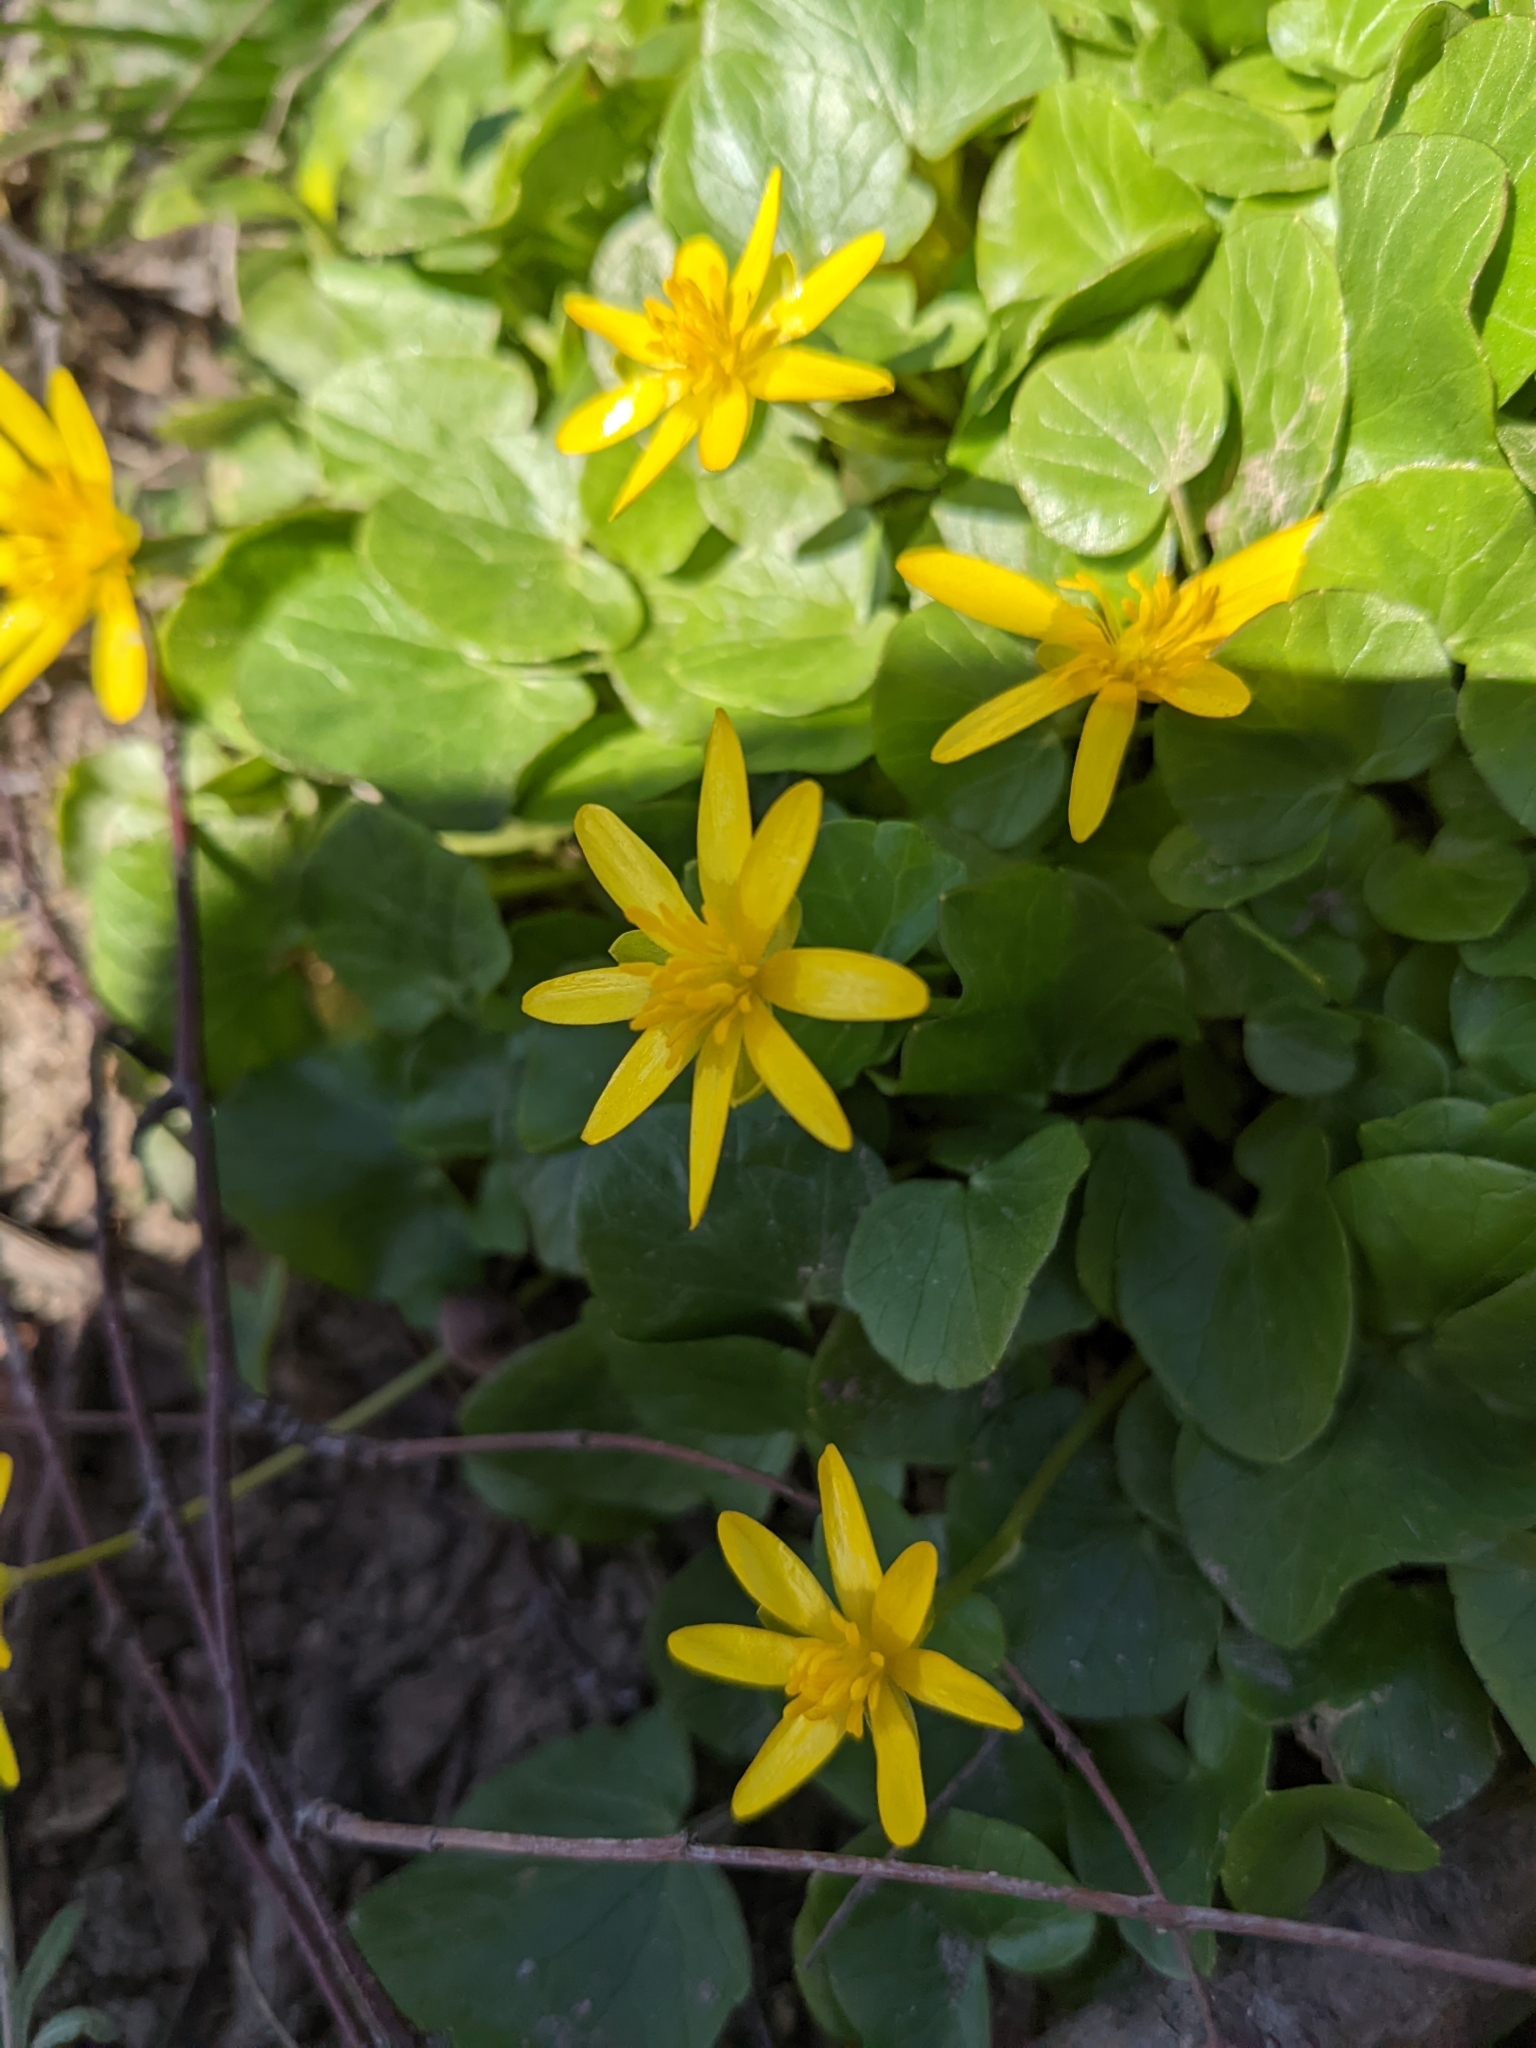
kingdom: Plantae
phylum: Tracheophyta
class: Magnoliopsida
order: Ranunculales
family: Ranunculaceae
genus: Ficaria
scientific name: Ficaria verna
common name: Lesser celandine
